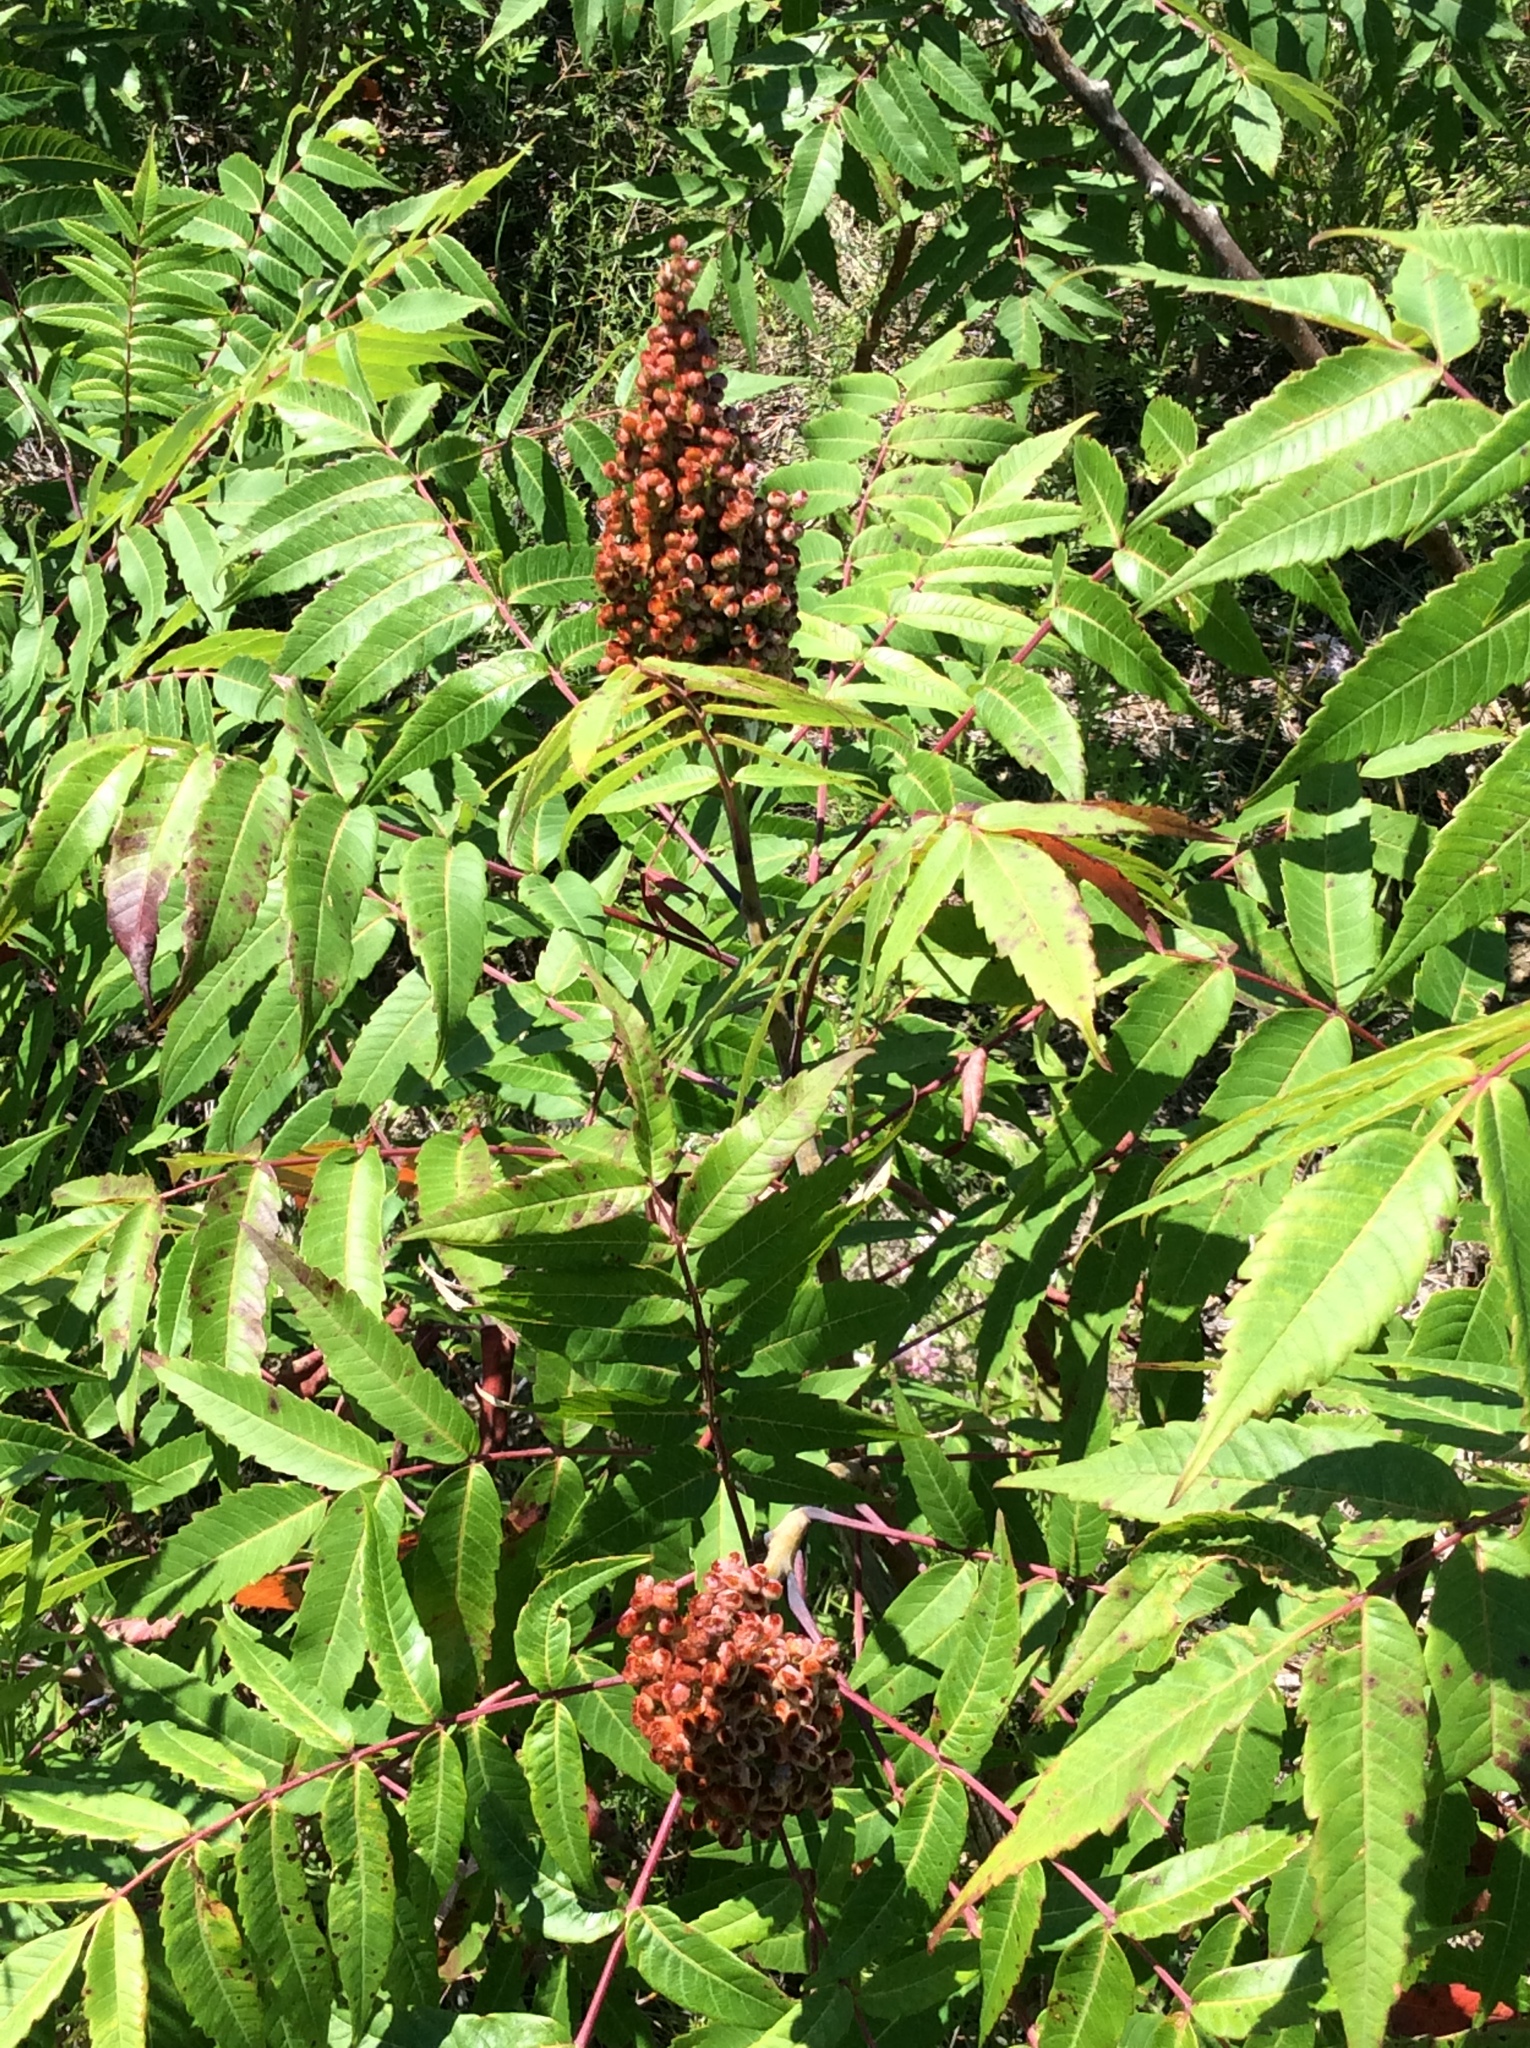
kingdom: Plantae
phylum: Tracheophyta
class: Magnoliopsida
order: Sapindales
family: Anacardiaceae
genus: Rhus
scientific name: Rhus glabra
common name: Scarlet sumac
